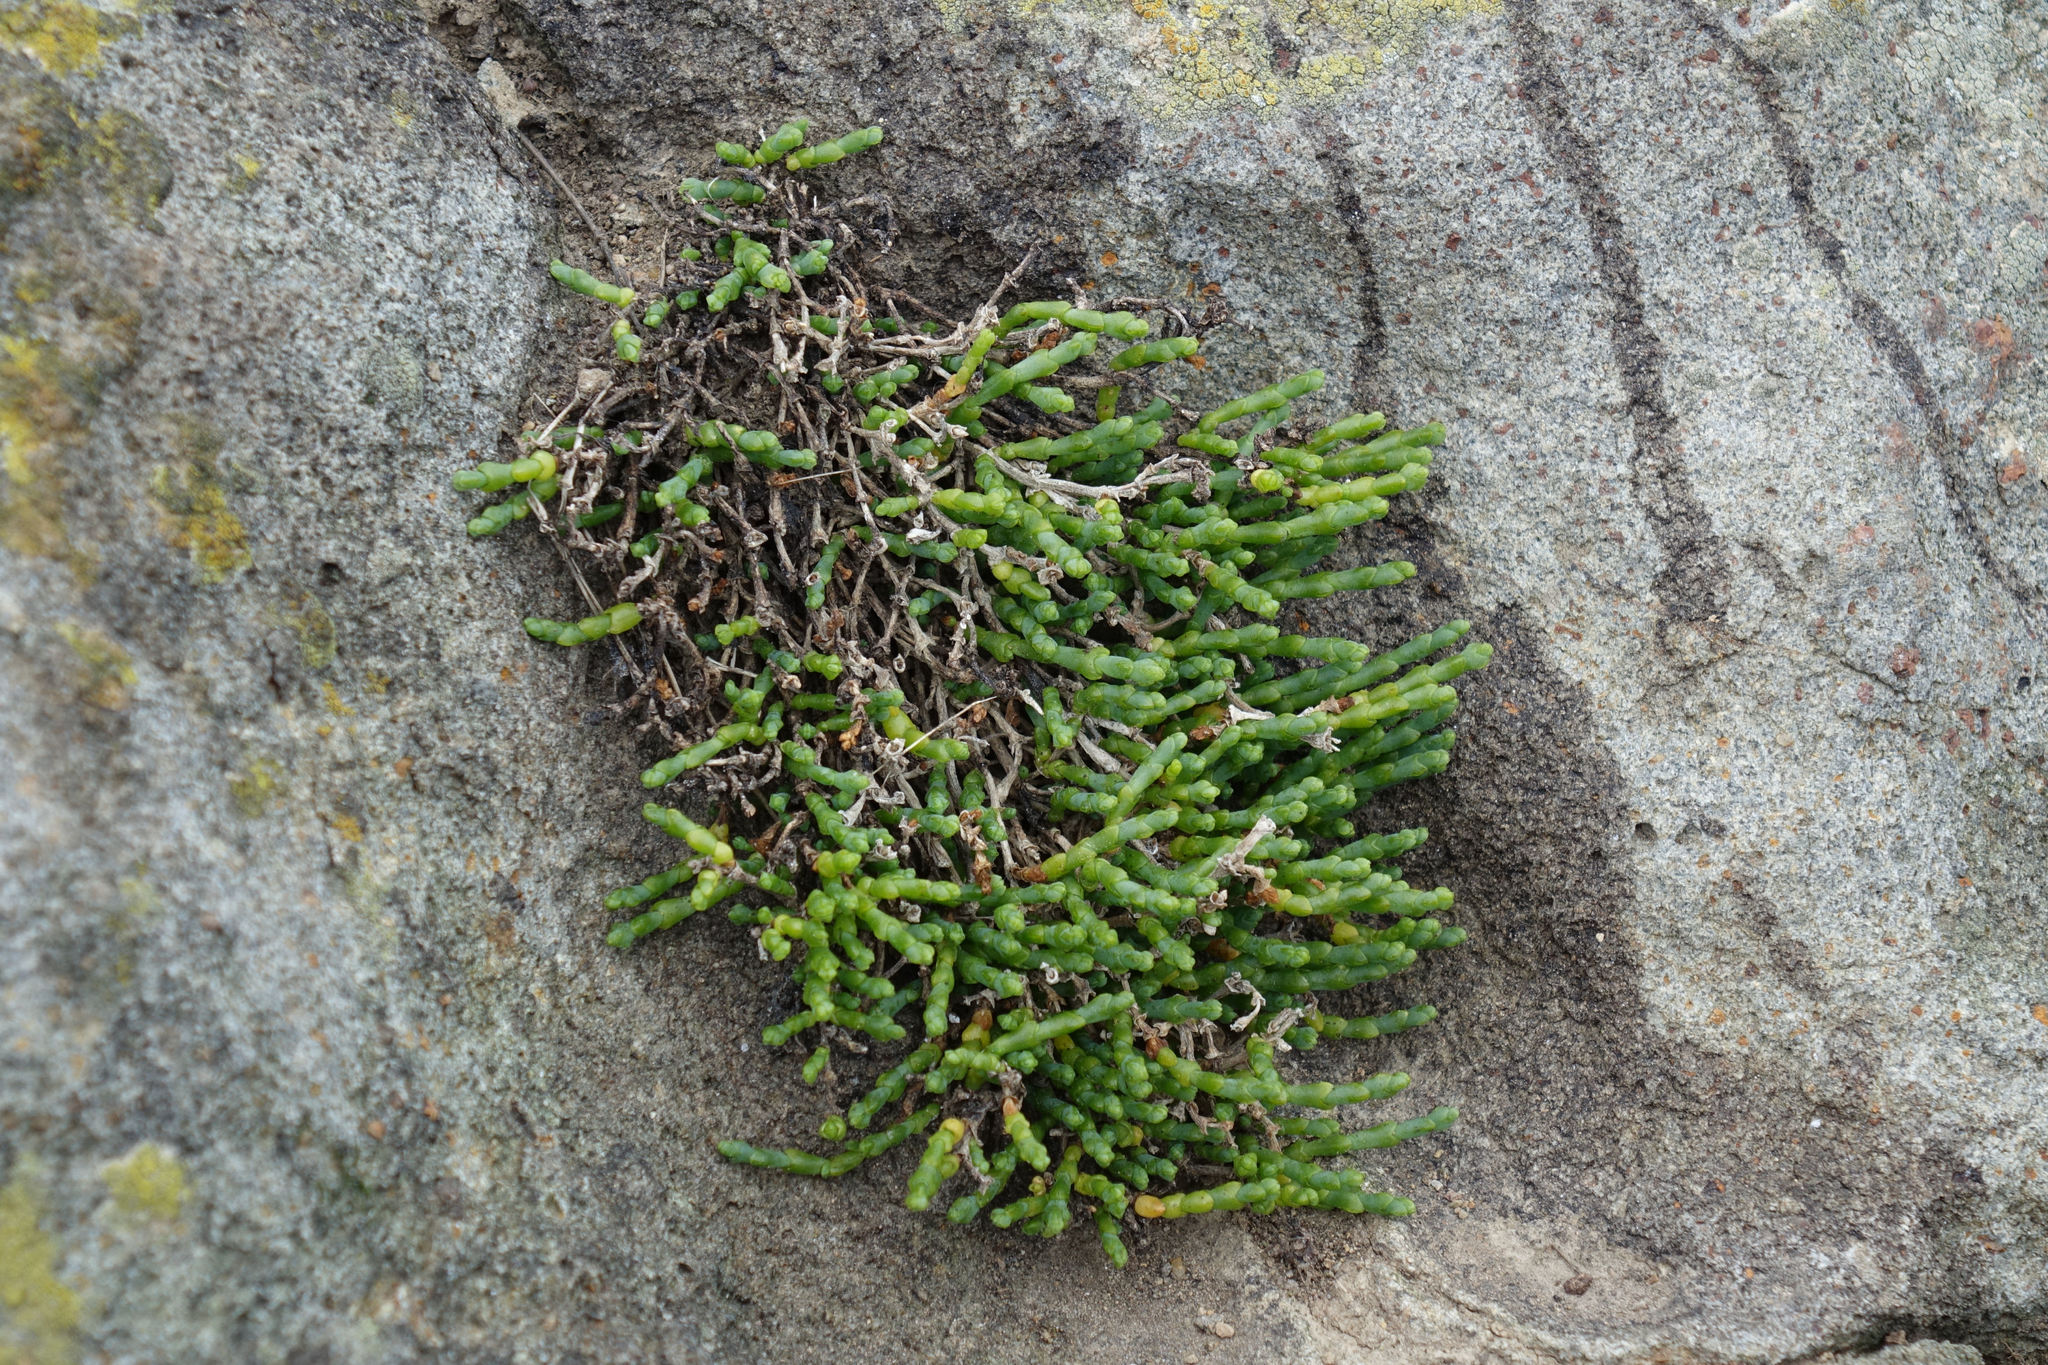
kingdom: Plantae
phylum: Tracheophyta
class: Magnoliopsida
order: Caryophyllales
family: Amaranthaceae
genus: Salicornia
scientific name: Salicornia quinqueflora
